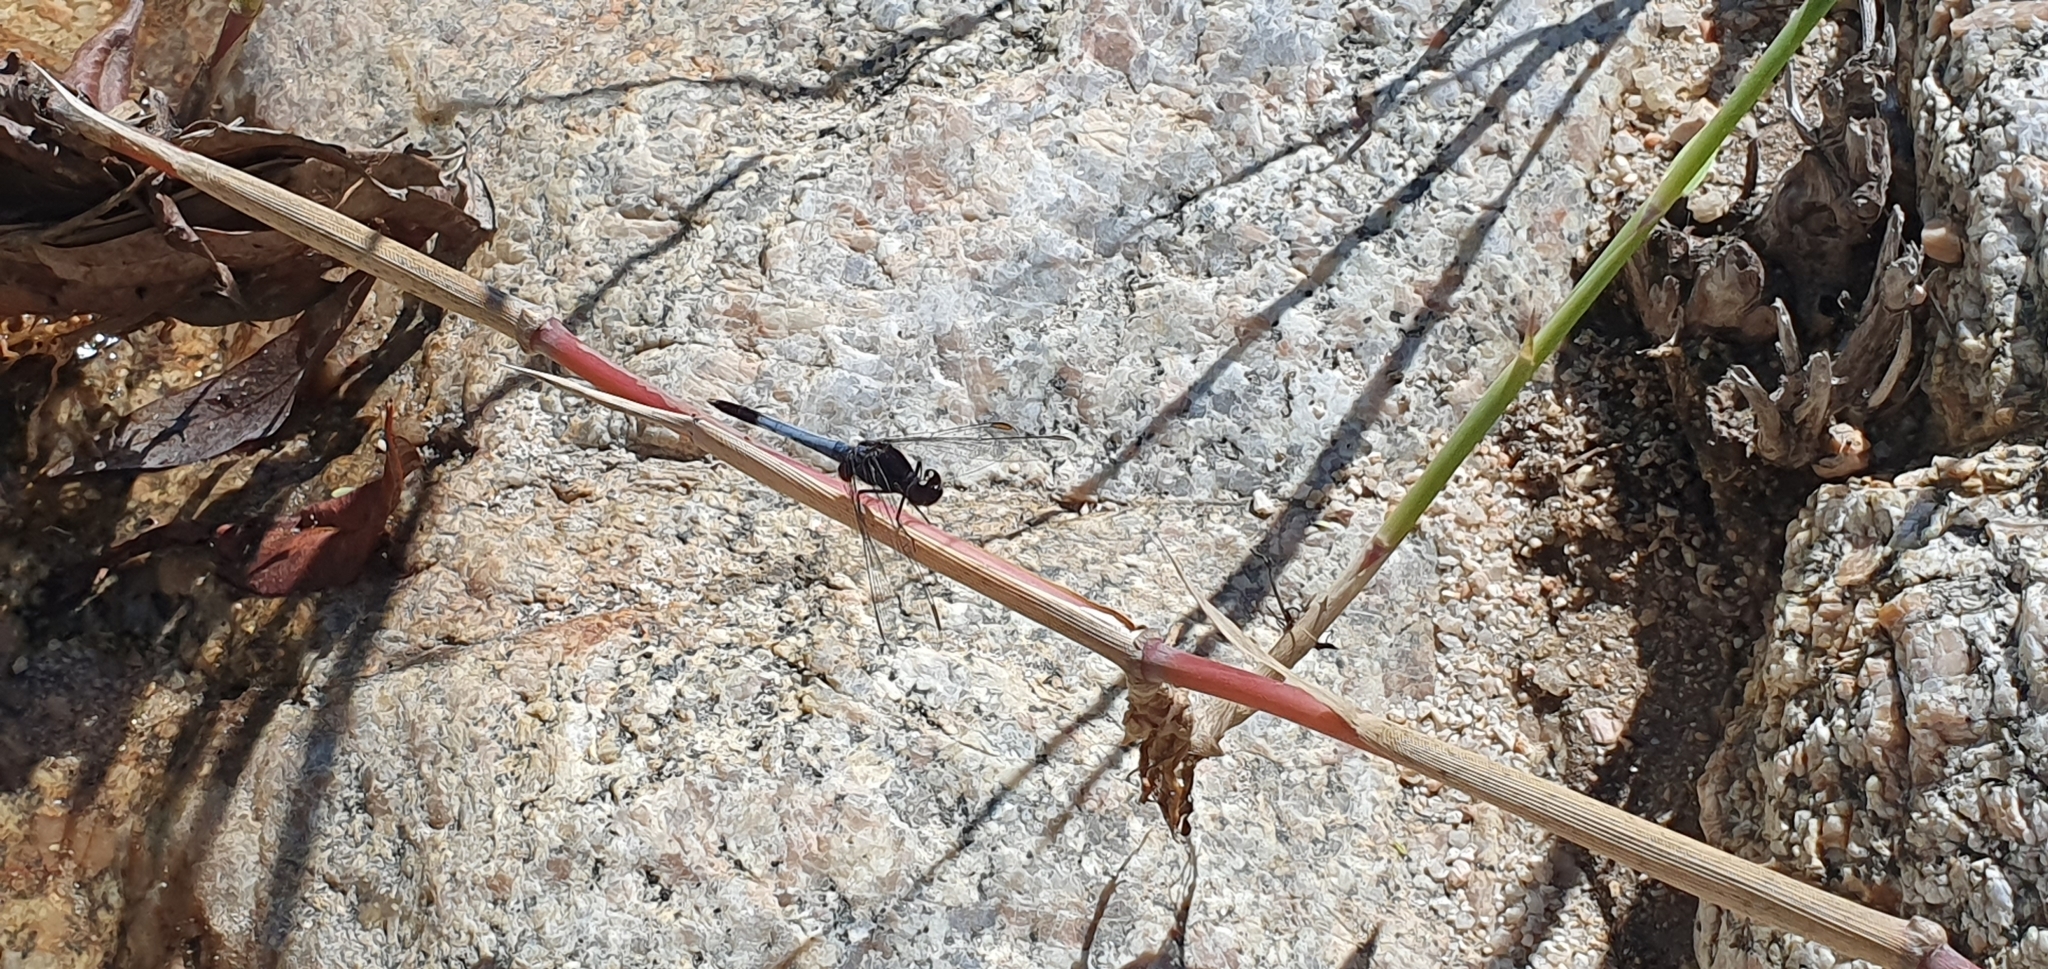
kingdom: Animalia
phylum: Arthropoda
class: Insecta
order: Odonata
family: Libellulidae
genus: Erythrodiplax
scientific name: Erythrodiplax basifusca
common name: Plateau dragonlet
